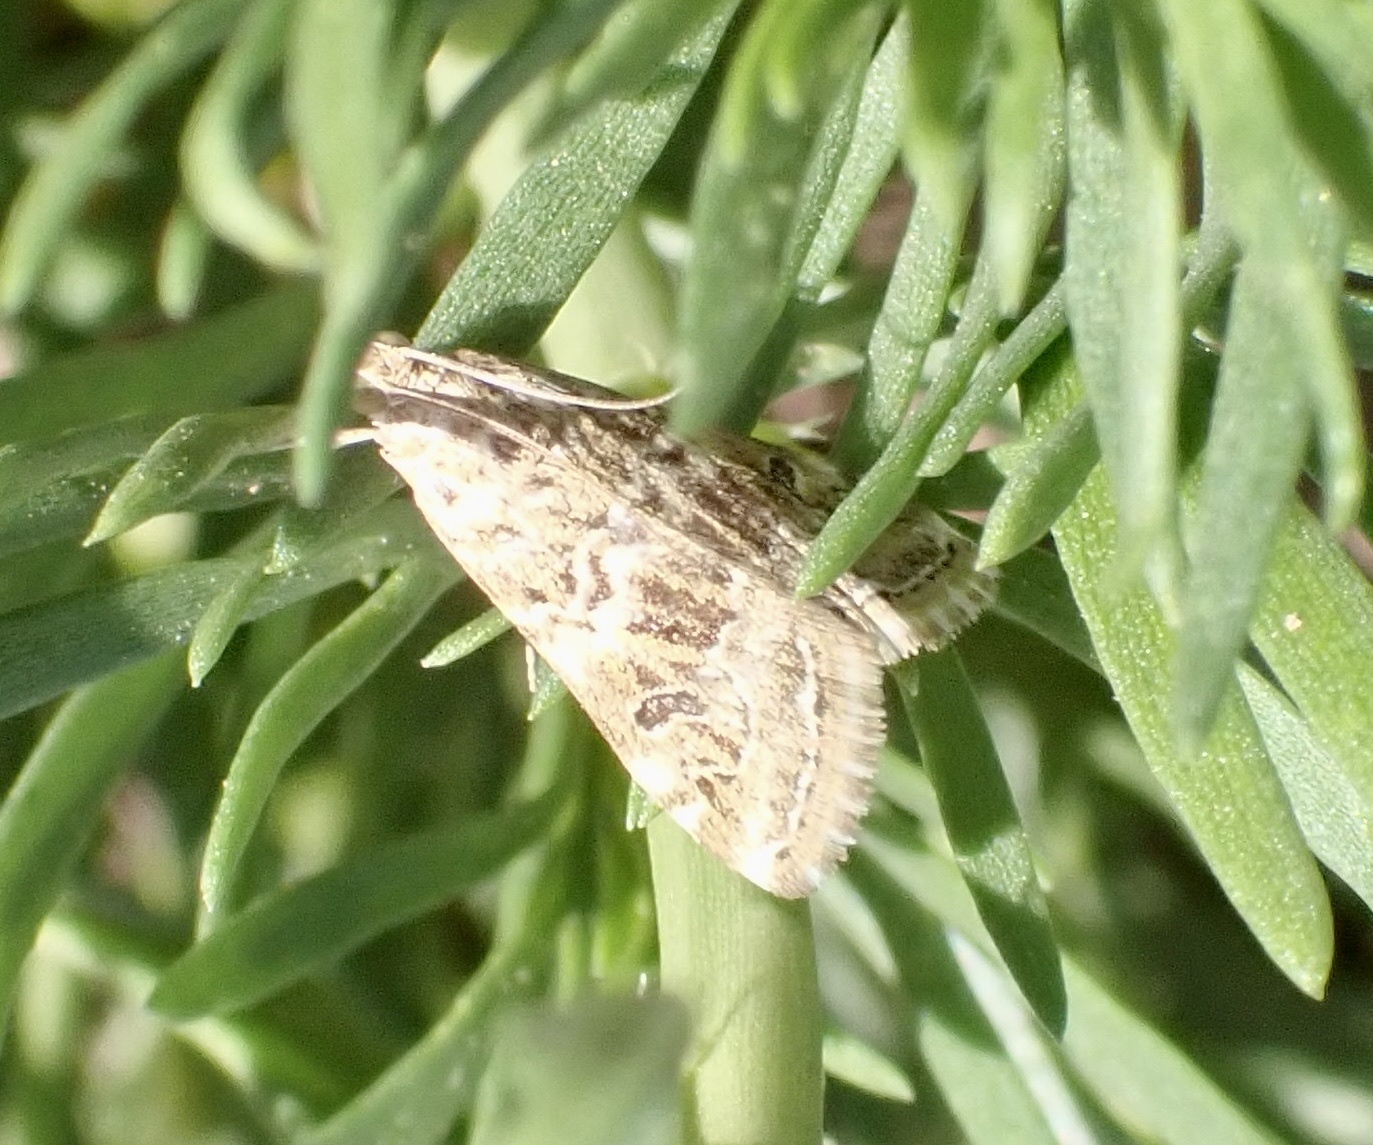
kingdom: Animalia
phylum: Arthropoda
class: Insecta
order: Lepidoptera
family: Crambidae
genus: Hellula
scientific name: Hellula undalis
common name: Cabbage webworm
